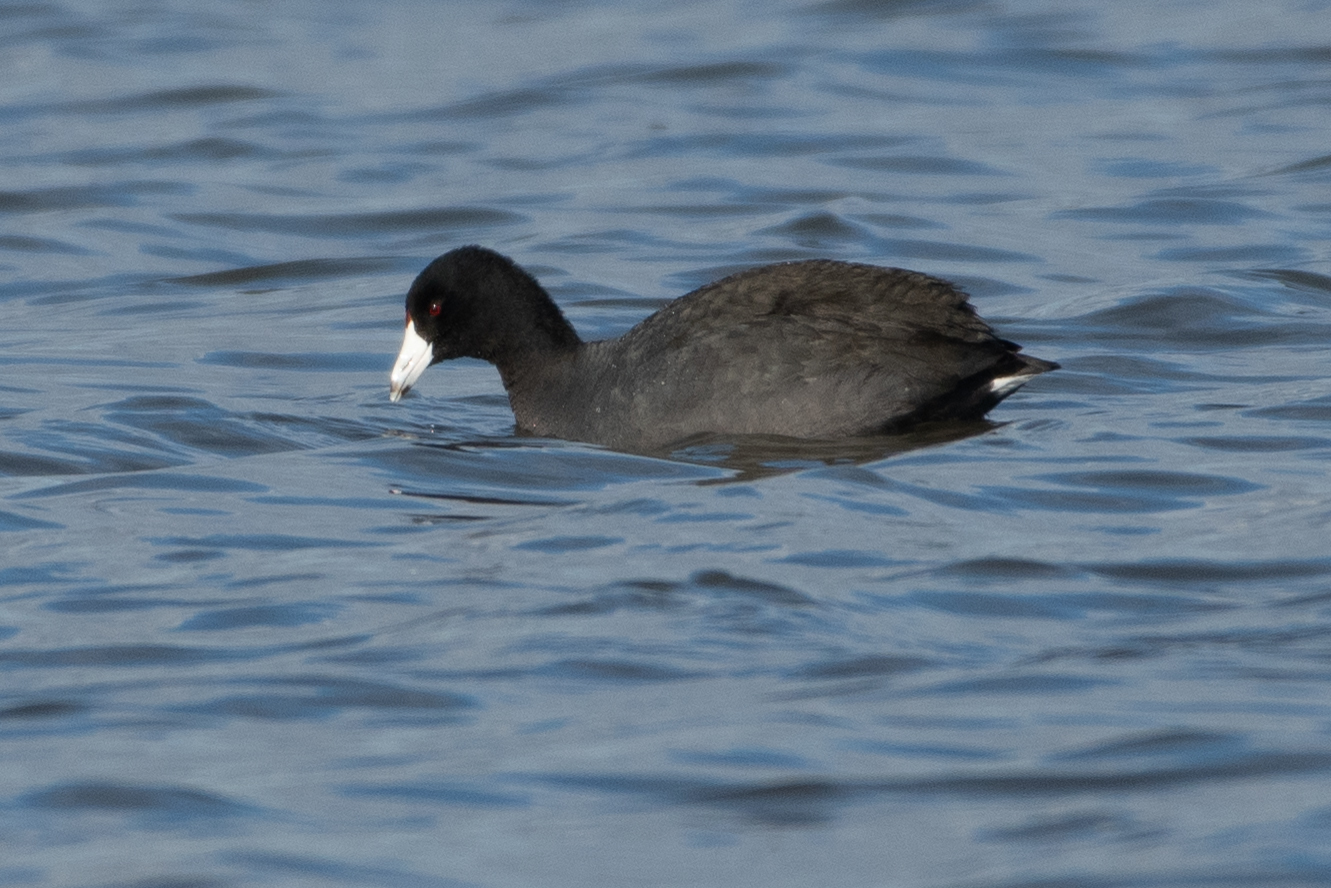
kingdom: Animalia
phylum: Chordata
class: Aves
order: Gruiformes
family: Rallidae
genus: Fulica
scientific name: Fulica americana
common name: American coot
